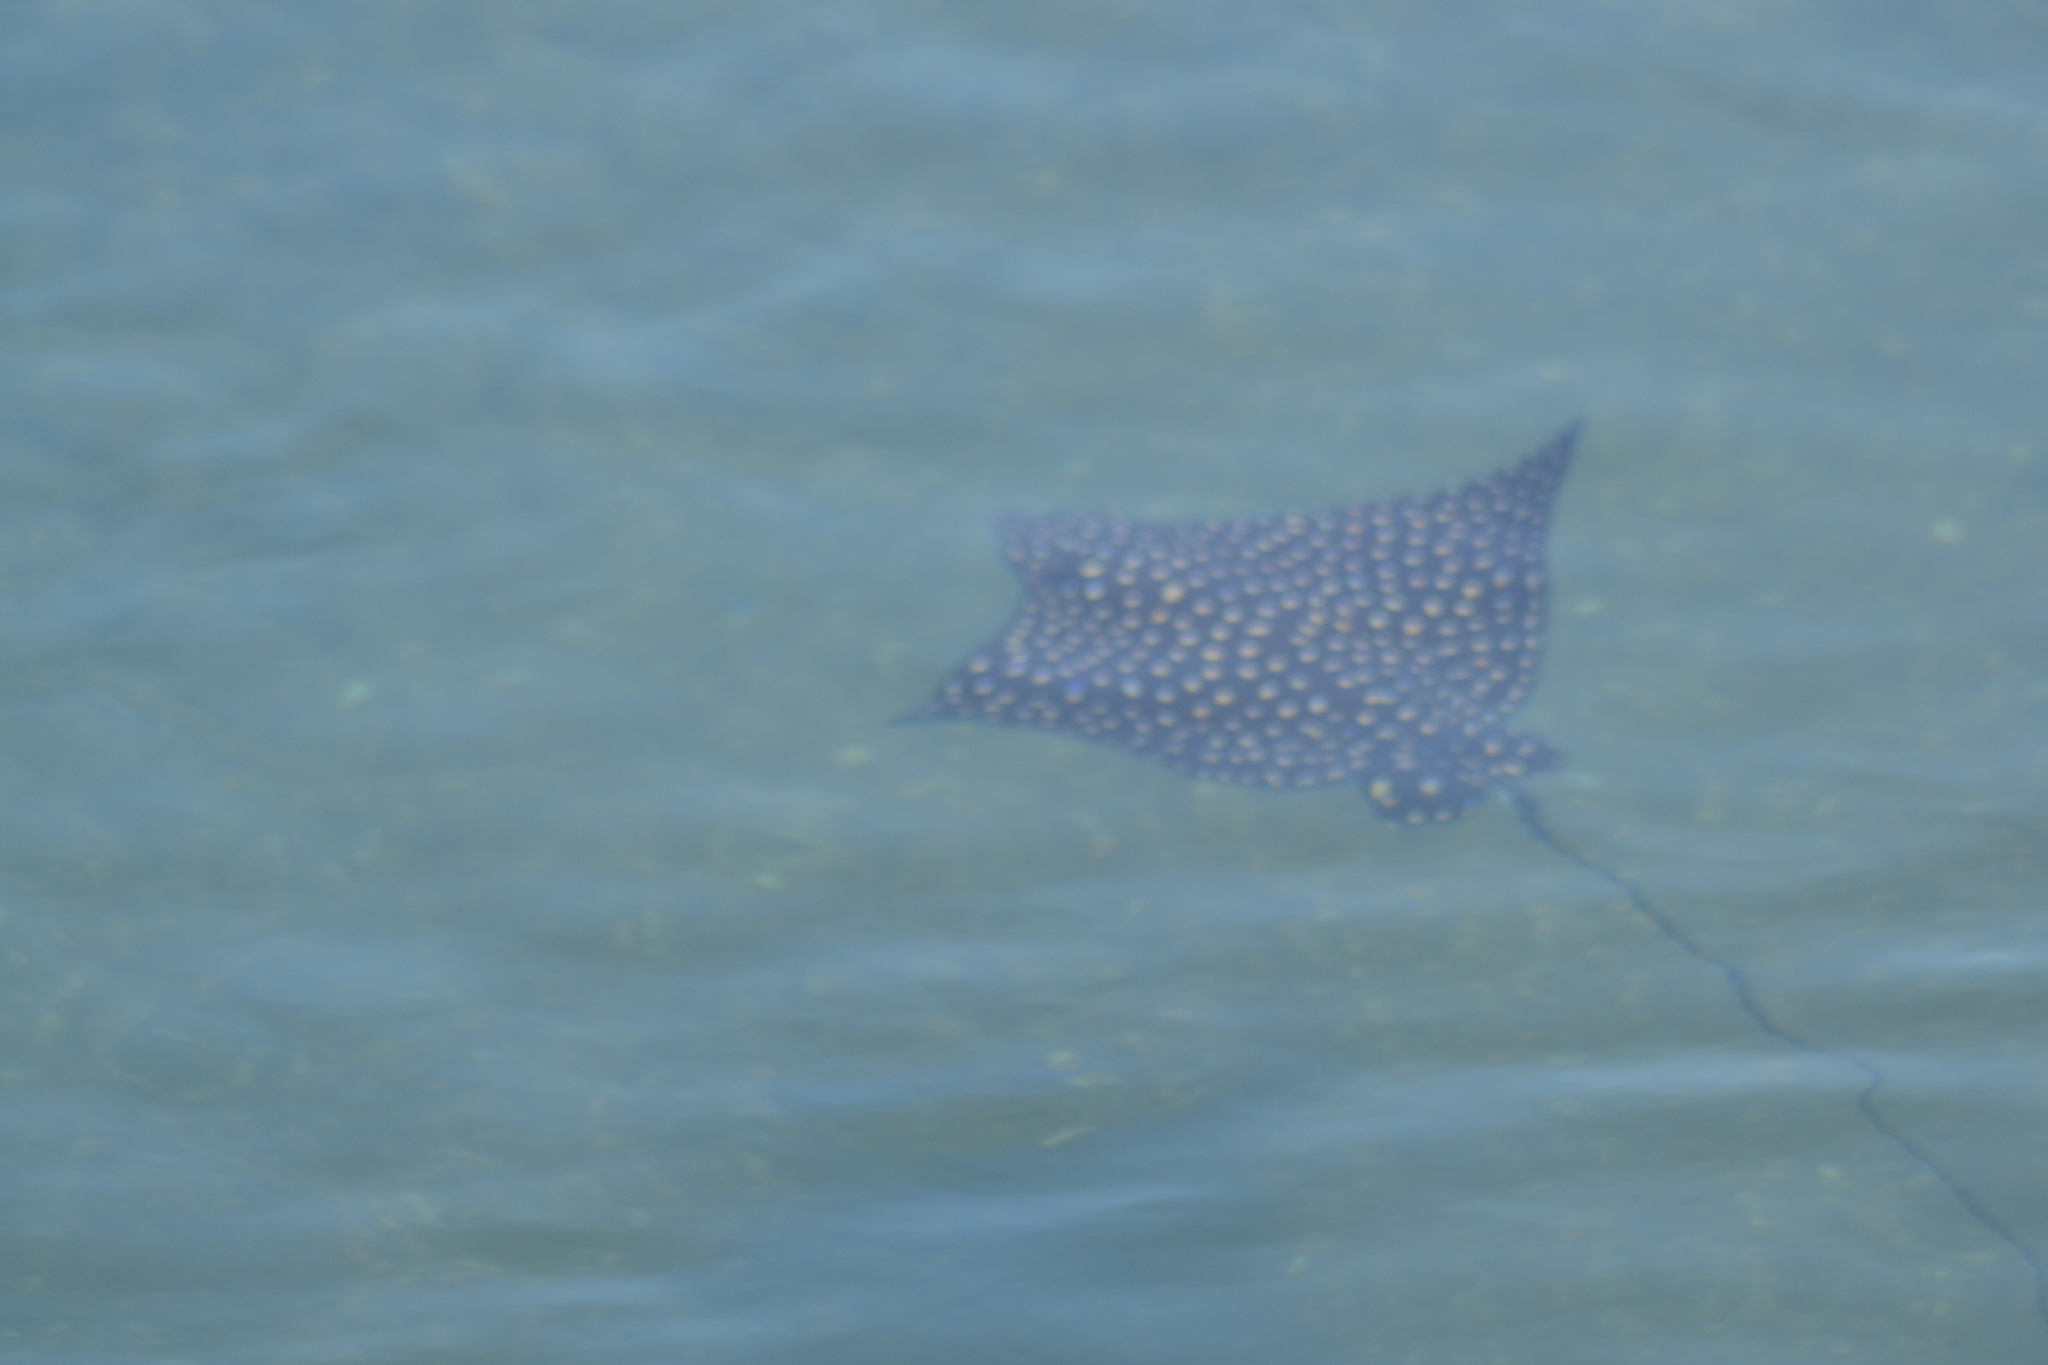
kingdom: Animalia
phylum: Chordata
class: Elasmobranchii
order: Myliobatiformes
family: Myliobatidae
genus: Aetobatus
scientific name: Aetobatus laticeps
